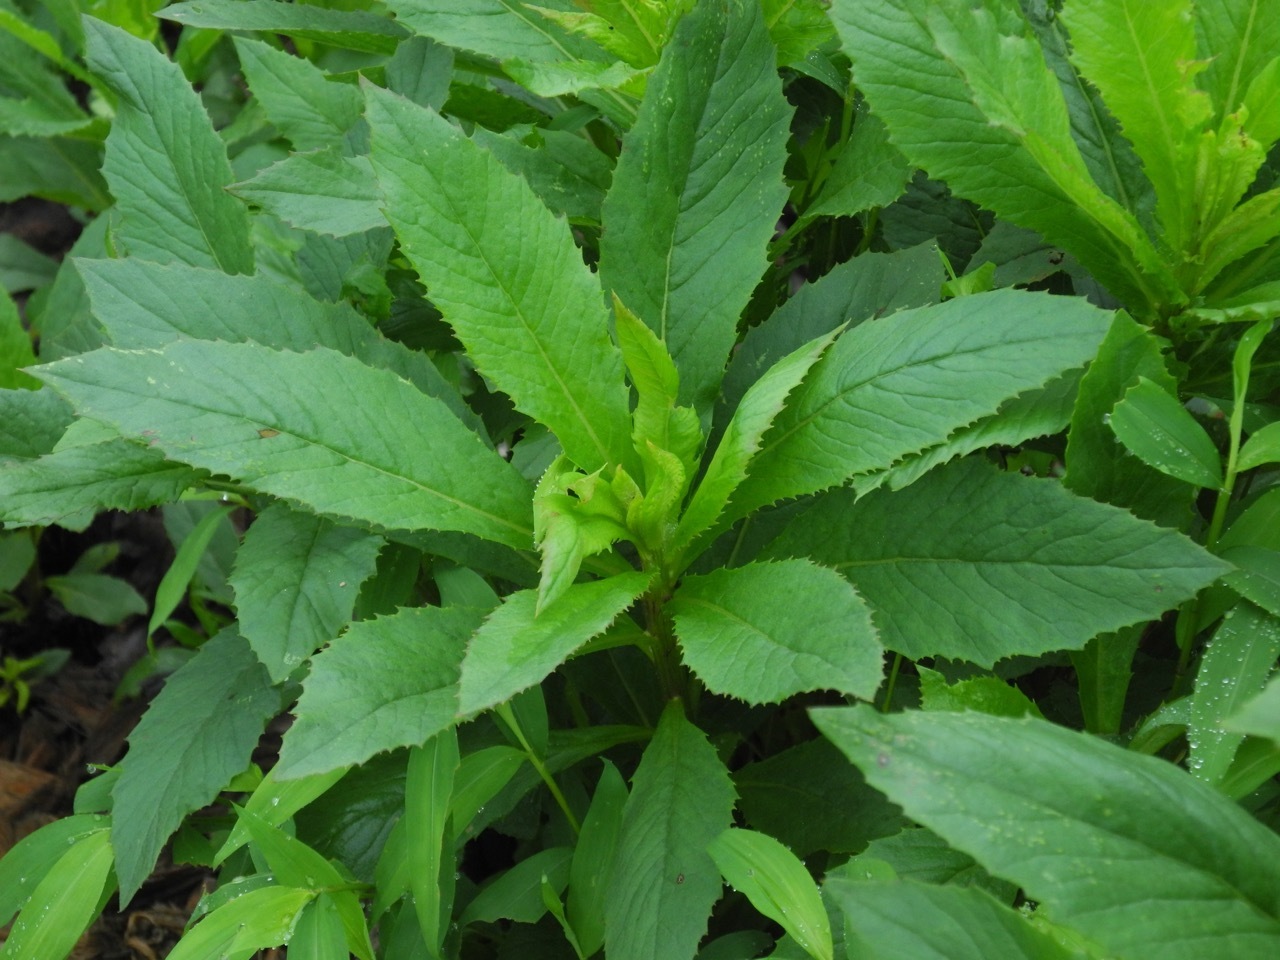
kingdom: Plantae
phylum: Tracheophyta
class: Magnoliopsida
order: Asterales
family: Asteraceae
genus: Erechtites
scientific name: Erechtites hieraciifolius
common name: American burnweed
